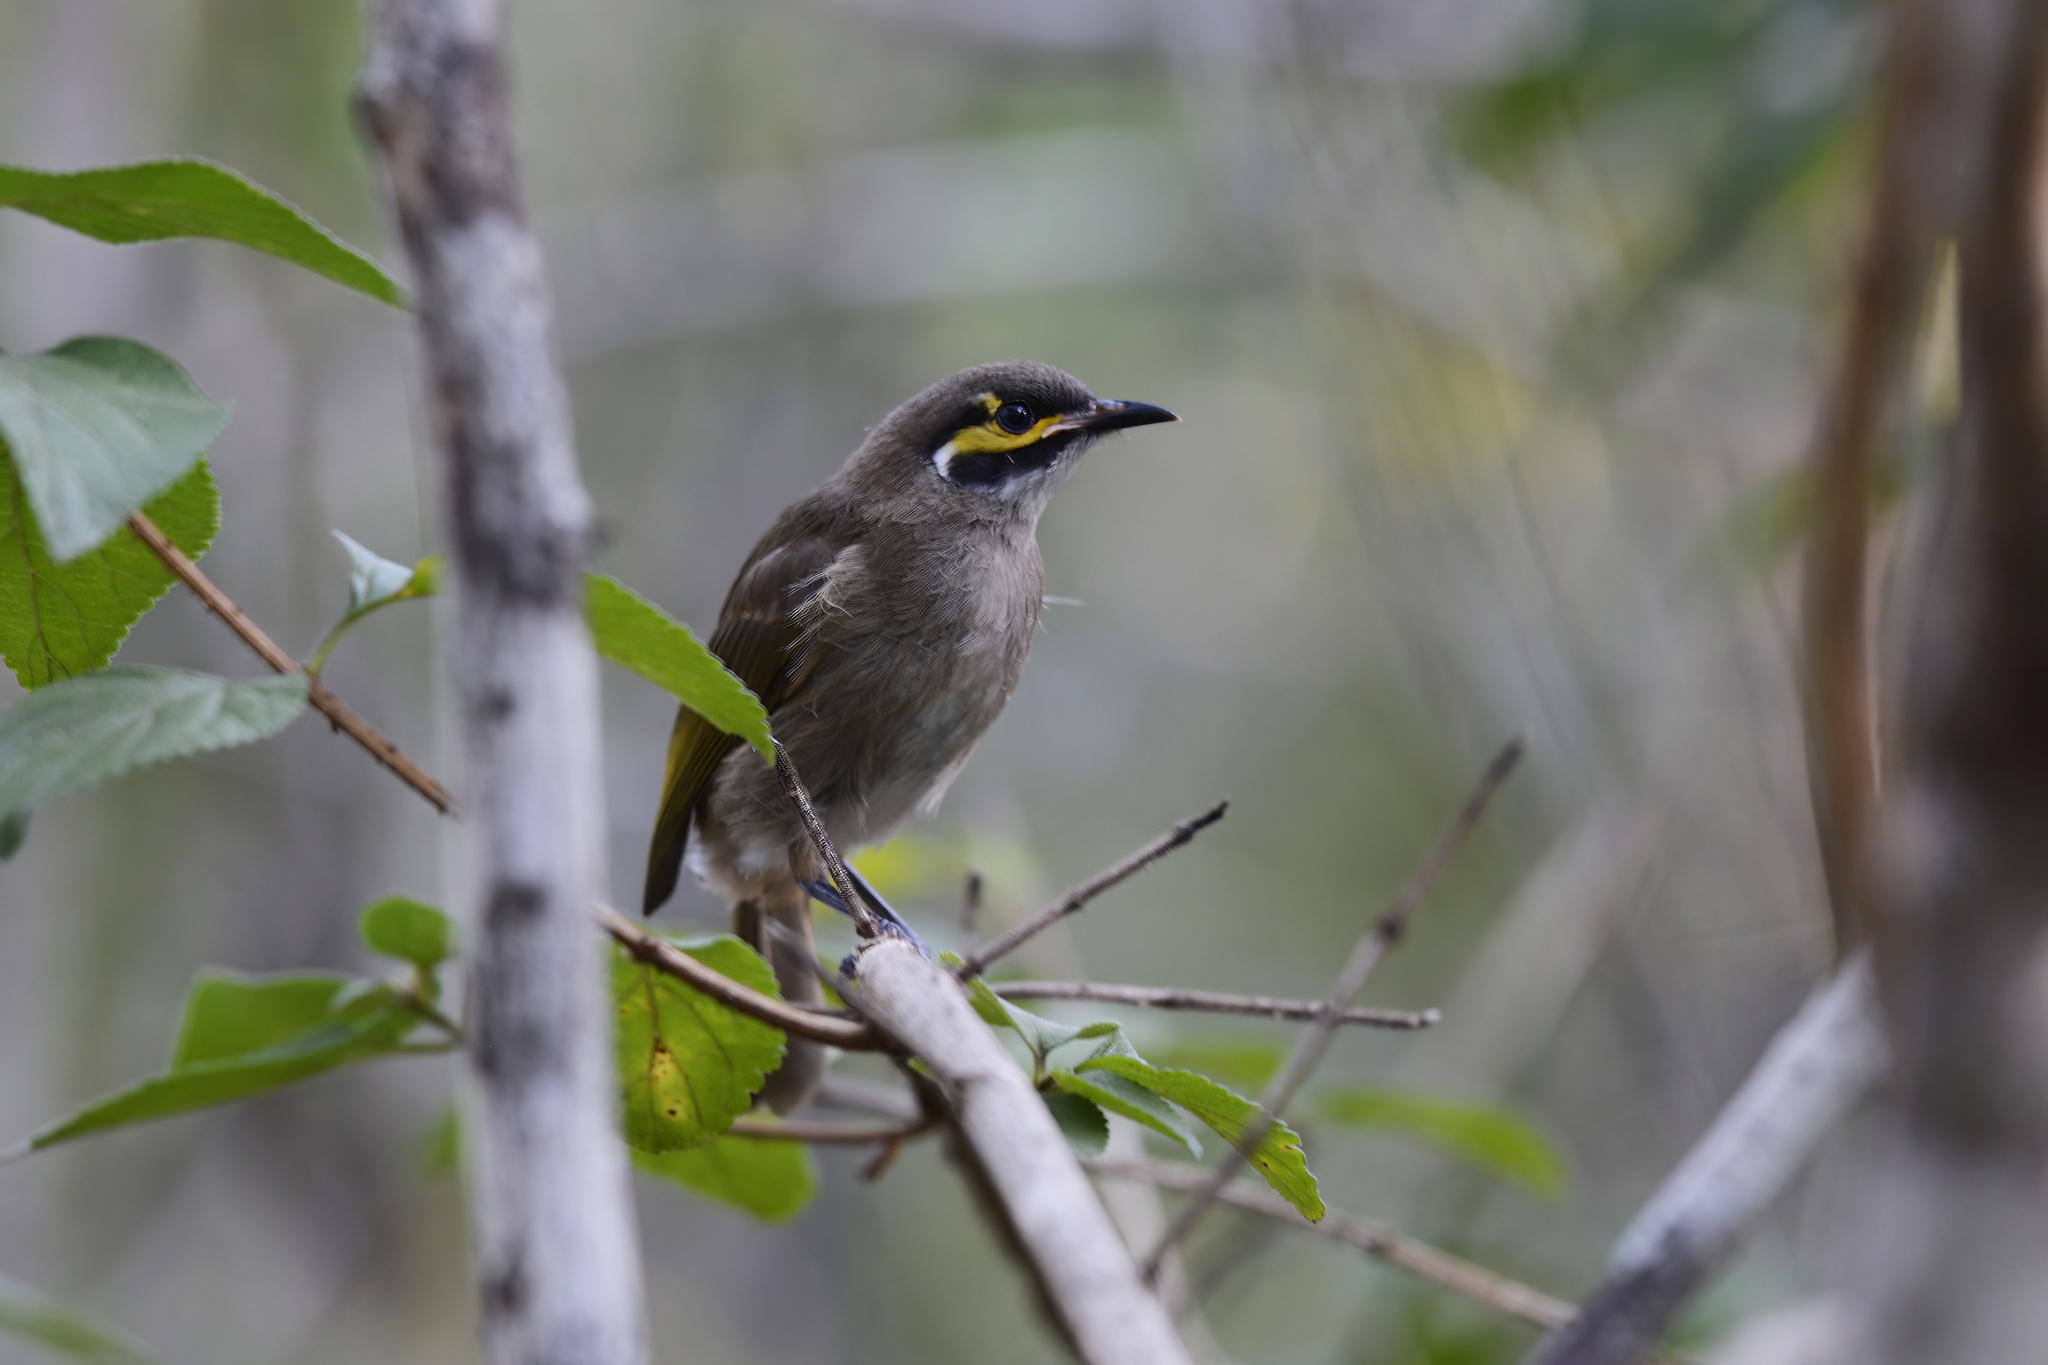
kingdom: Animalia
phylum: Chordata
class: Aves
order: Passeriformes
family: Meliphagidae
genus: Caligavis
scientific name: Caligavis chrysops
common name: Yellow-faced honeyeater
